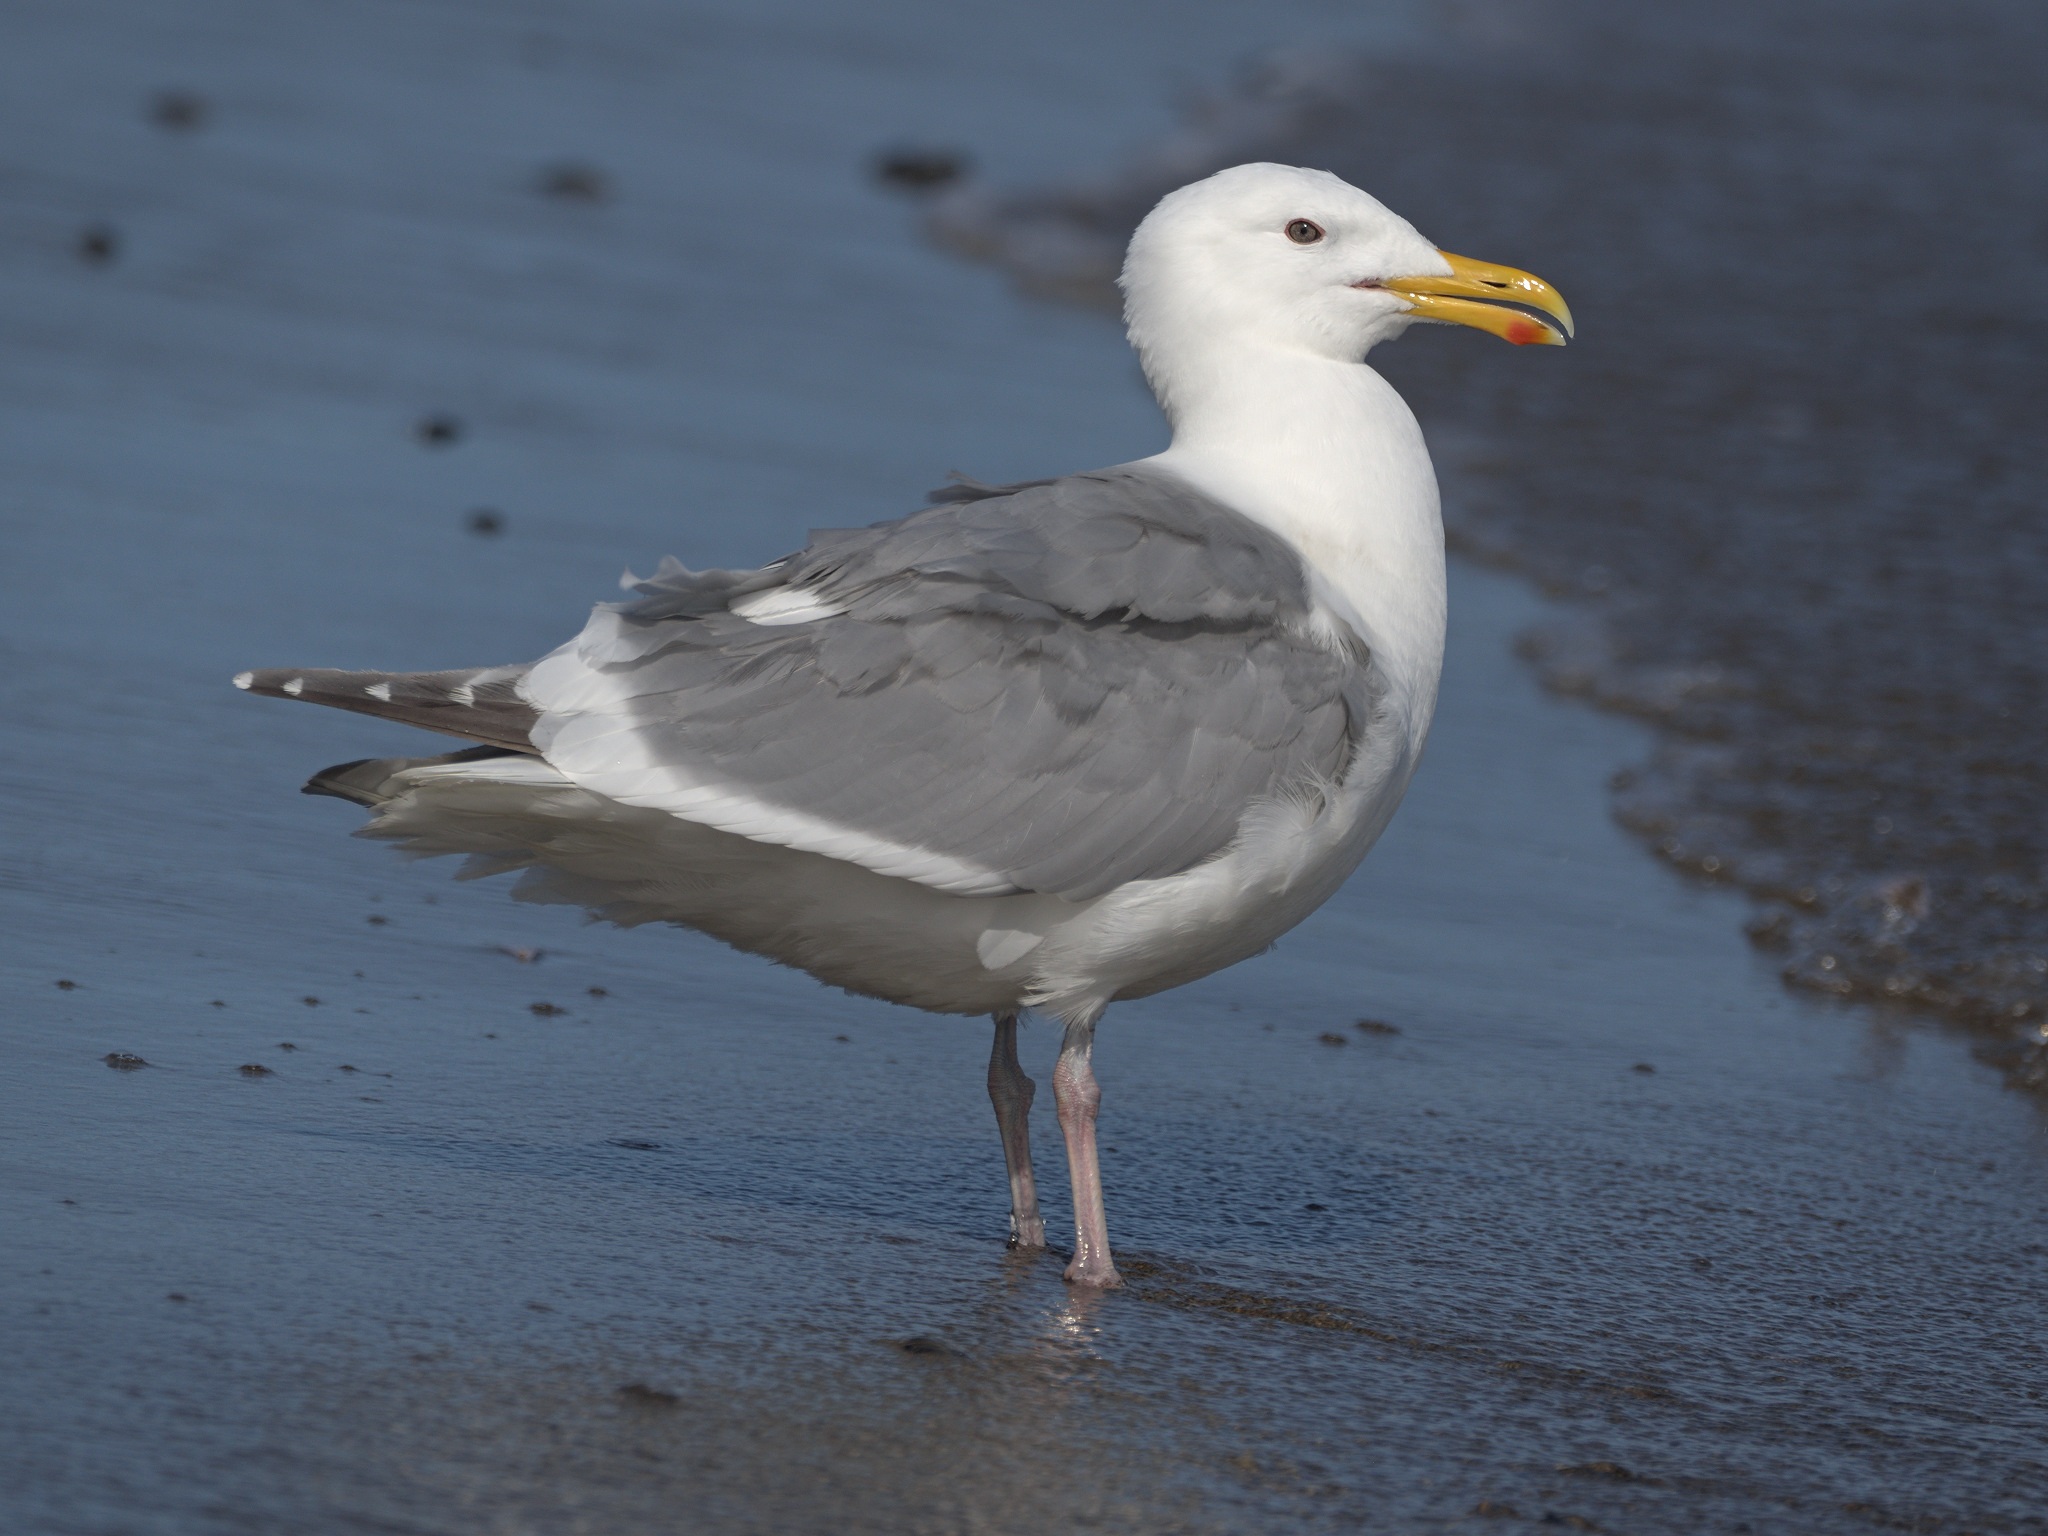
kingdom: Animalia
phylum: Chordata
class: Aves
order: Charadriiformes
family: Laridae
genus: Larus
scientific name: Larus
